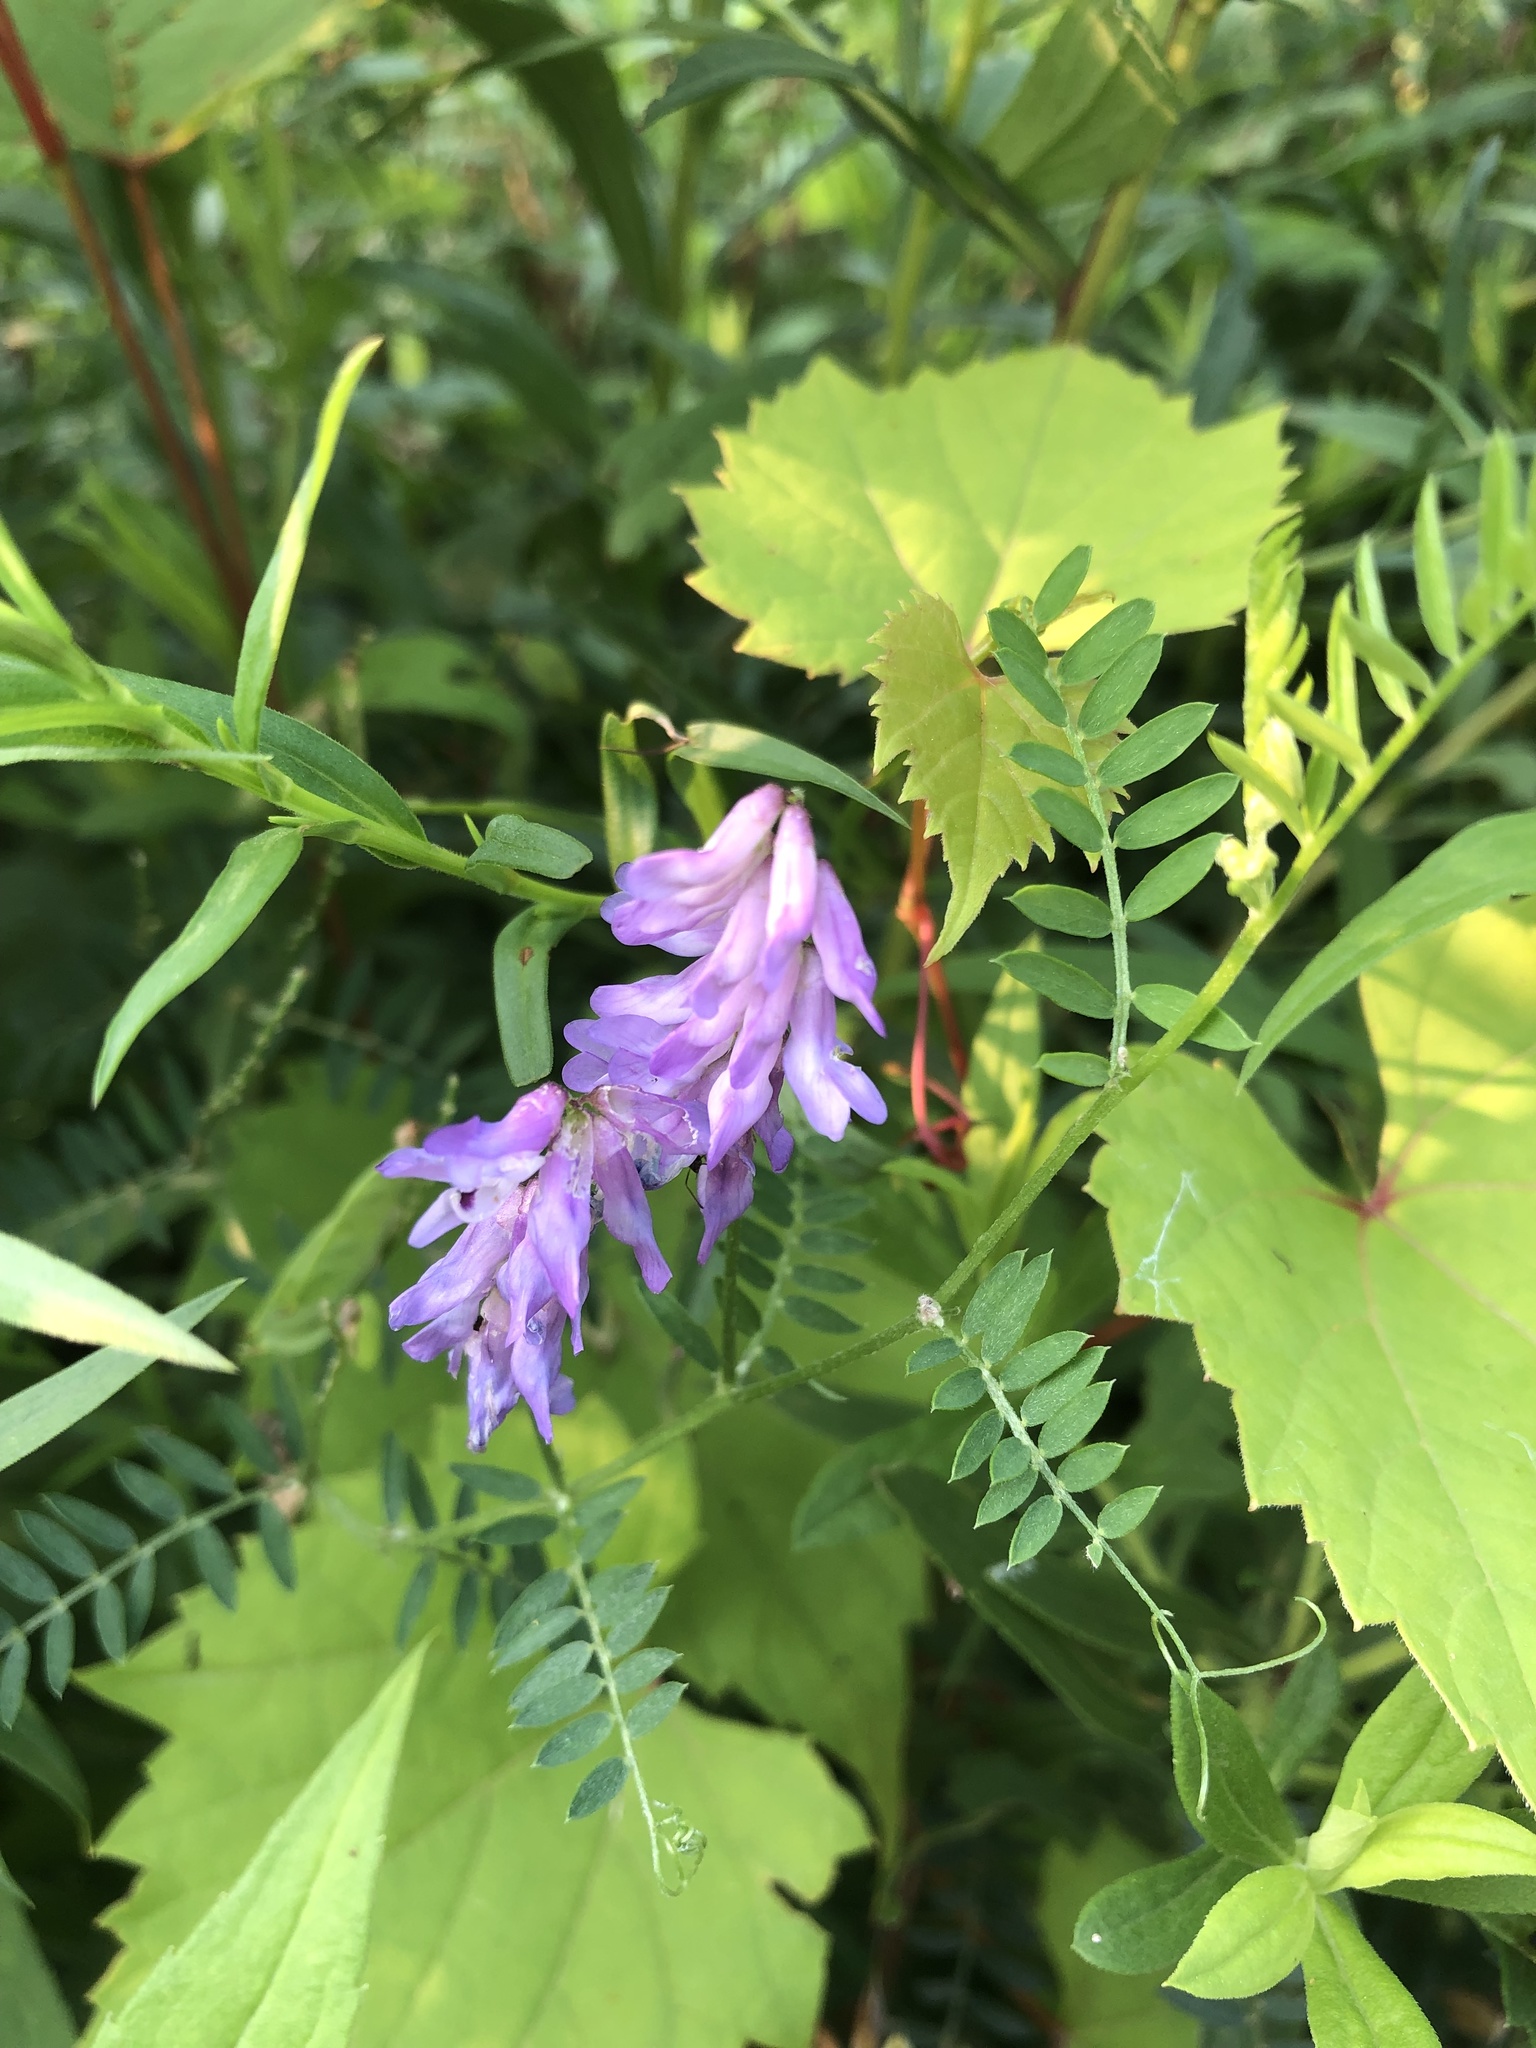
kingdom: Plantae
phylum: Tracheophyta
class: Magnoliopsida
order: Fabales
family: Fabaceae
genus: Vicia
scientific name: Vicia cracca
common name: Bird vetch
